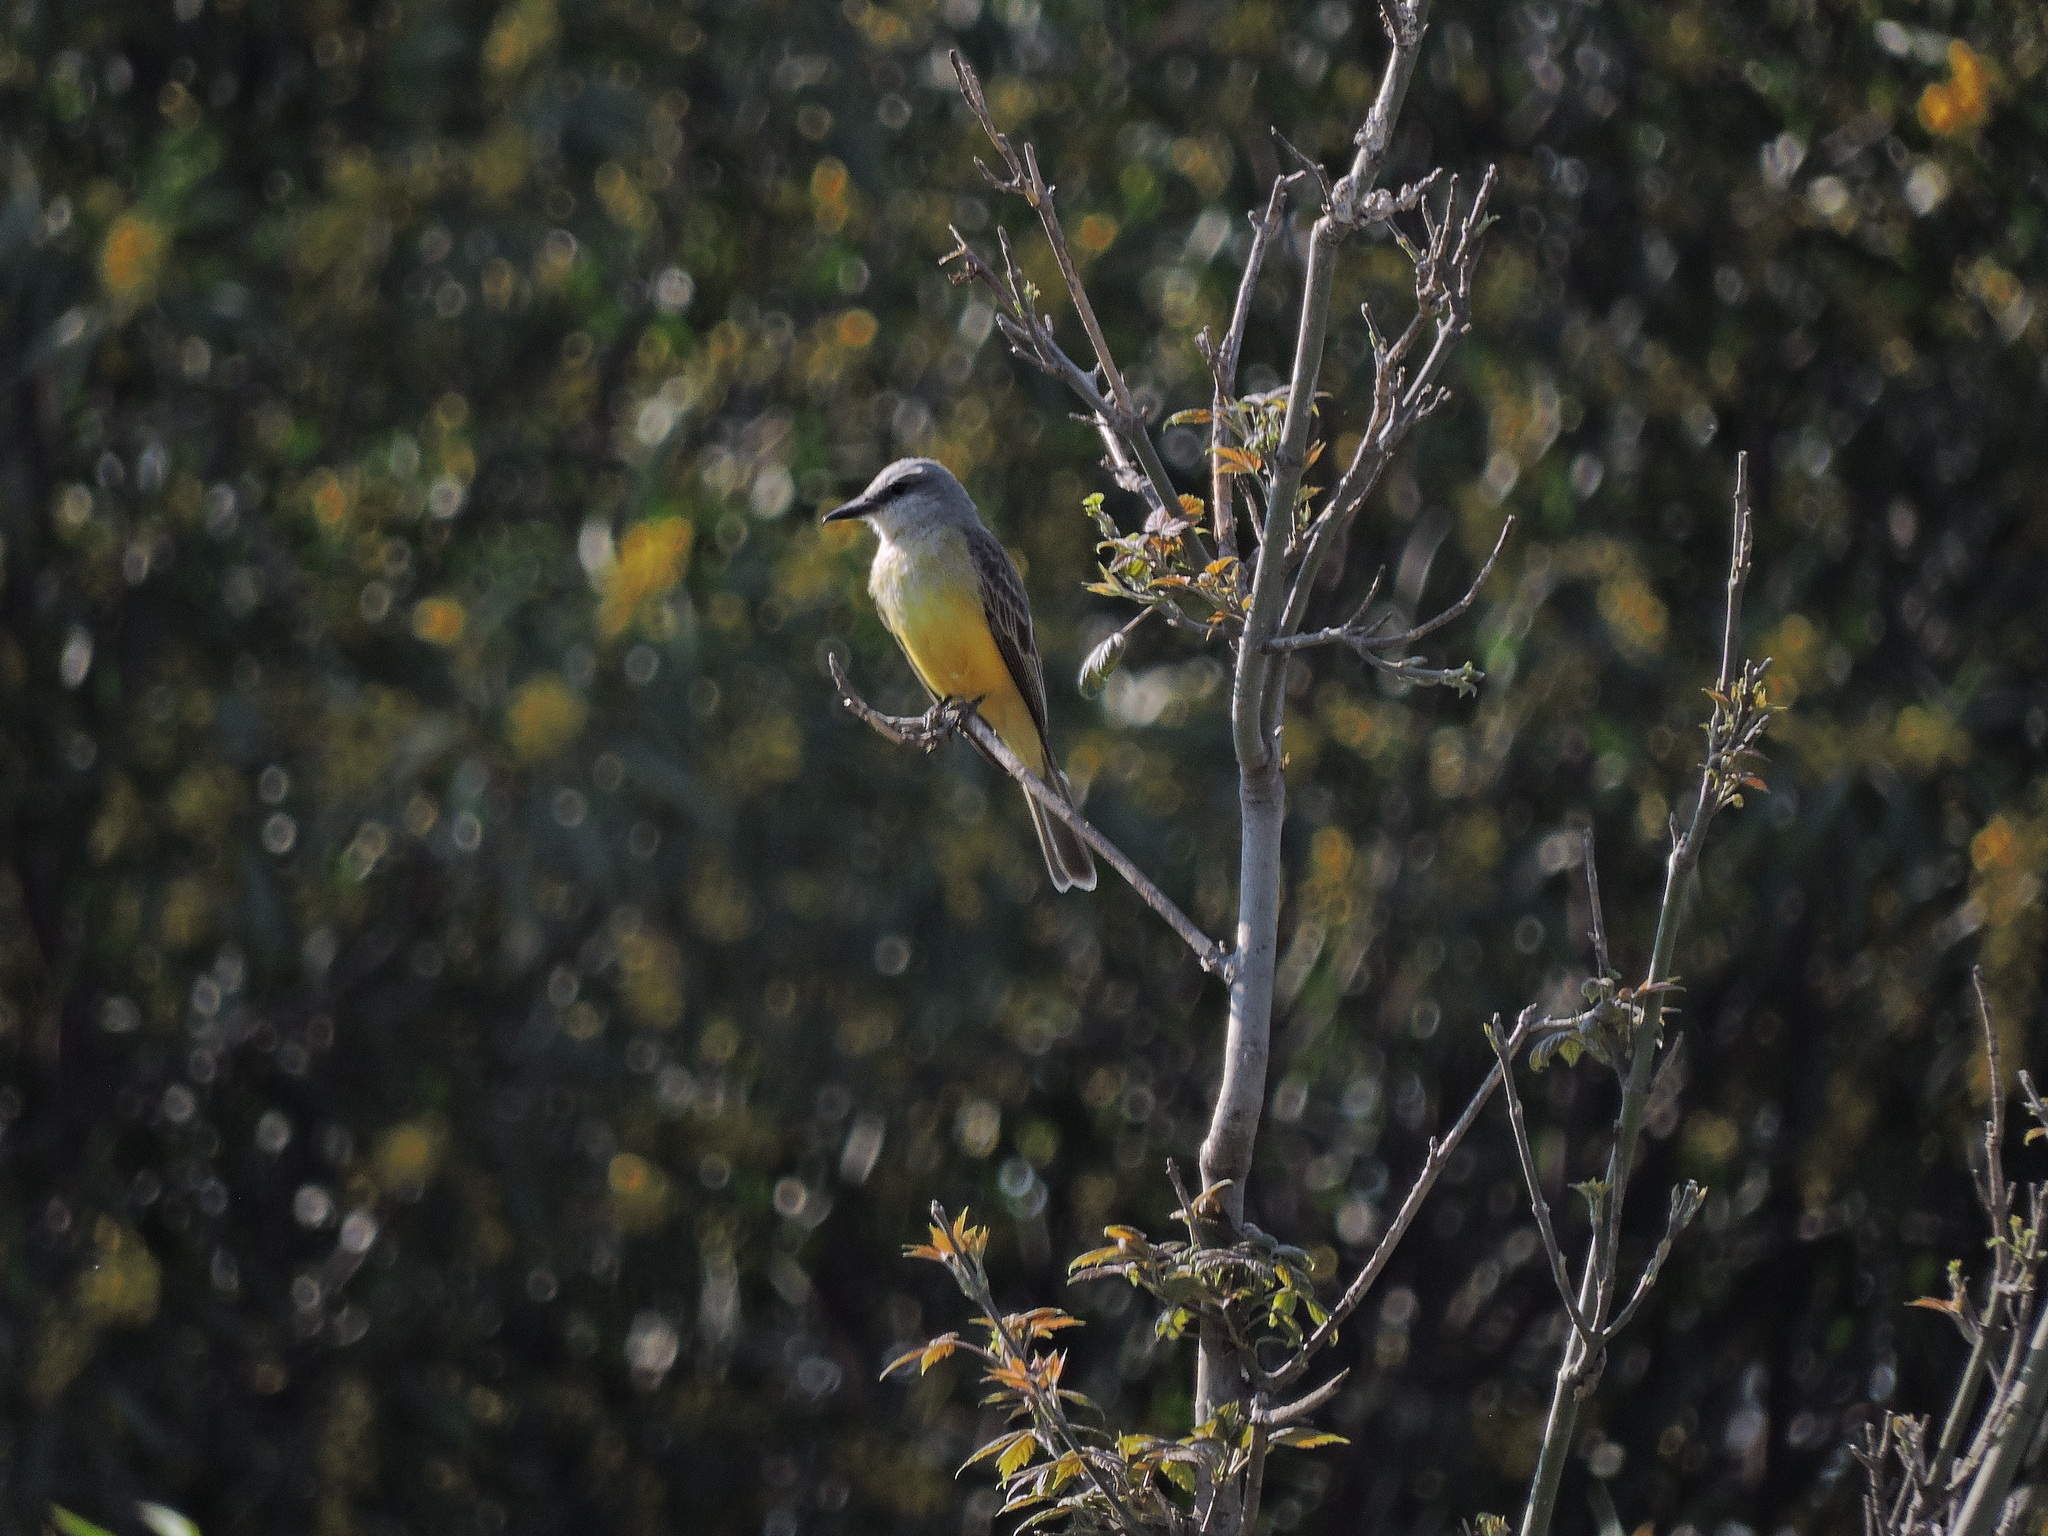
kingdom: Animalia
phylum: Chordata
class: Aves
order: Passeriformes
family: Tyrannidae
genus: Tyrannus
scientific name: Tyrannus vociferans
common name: Cassin's kingbird
